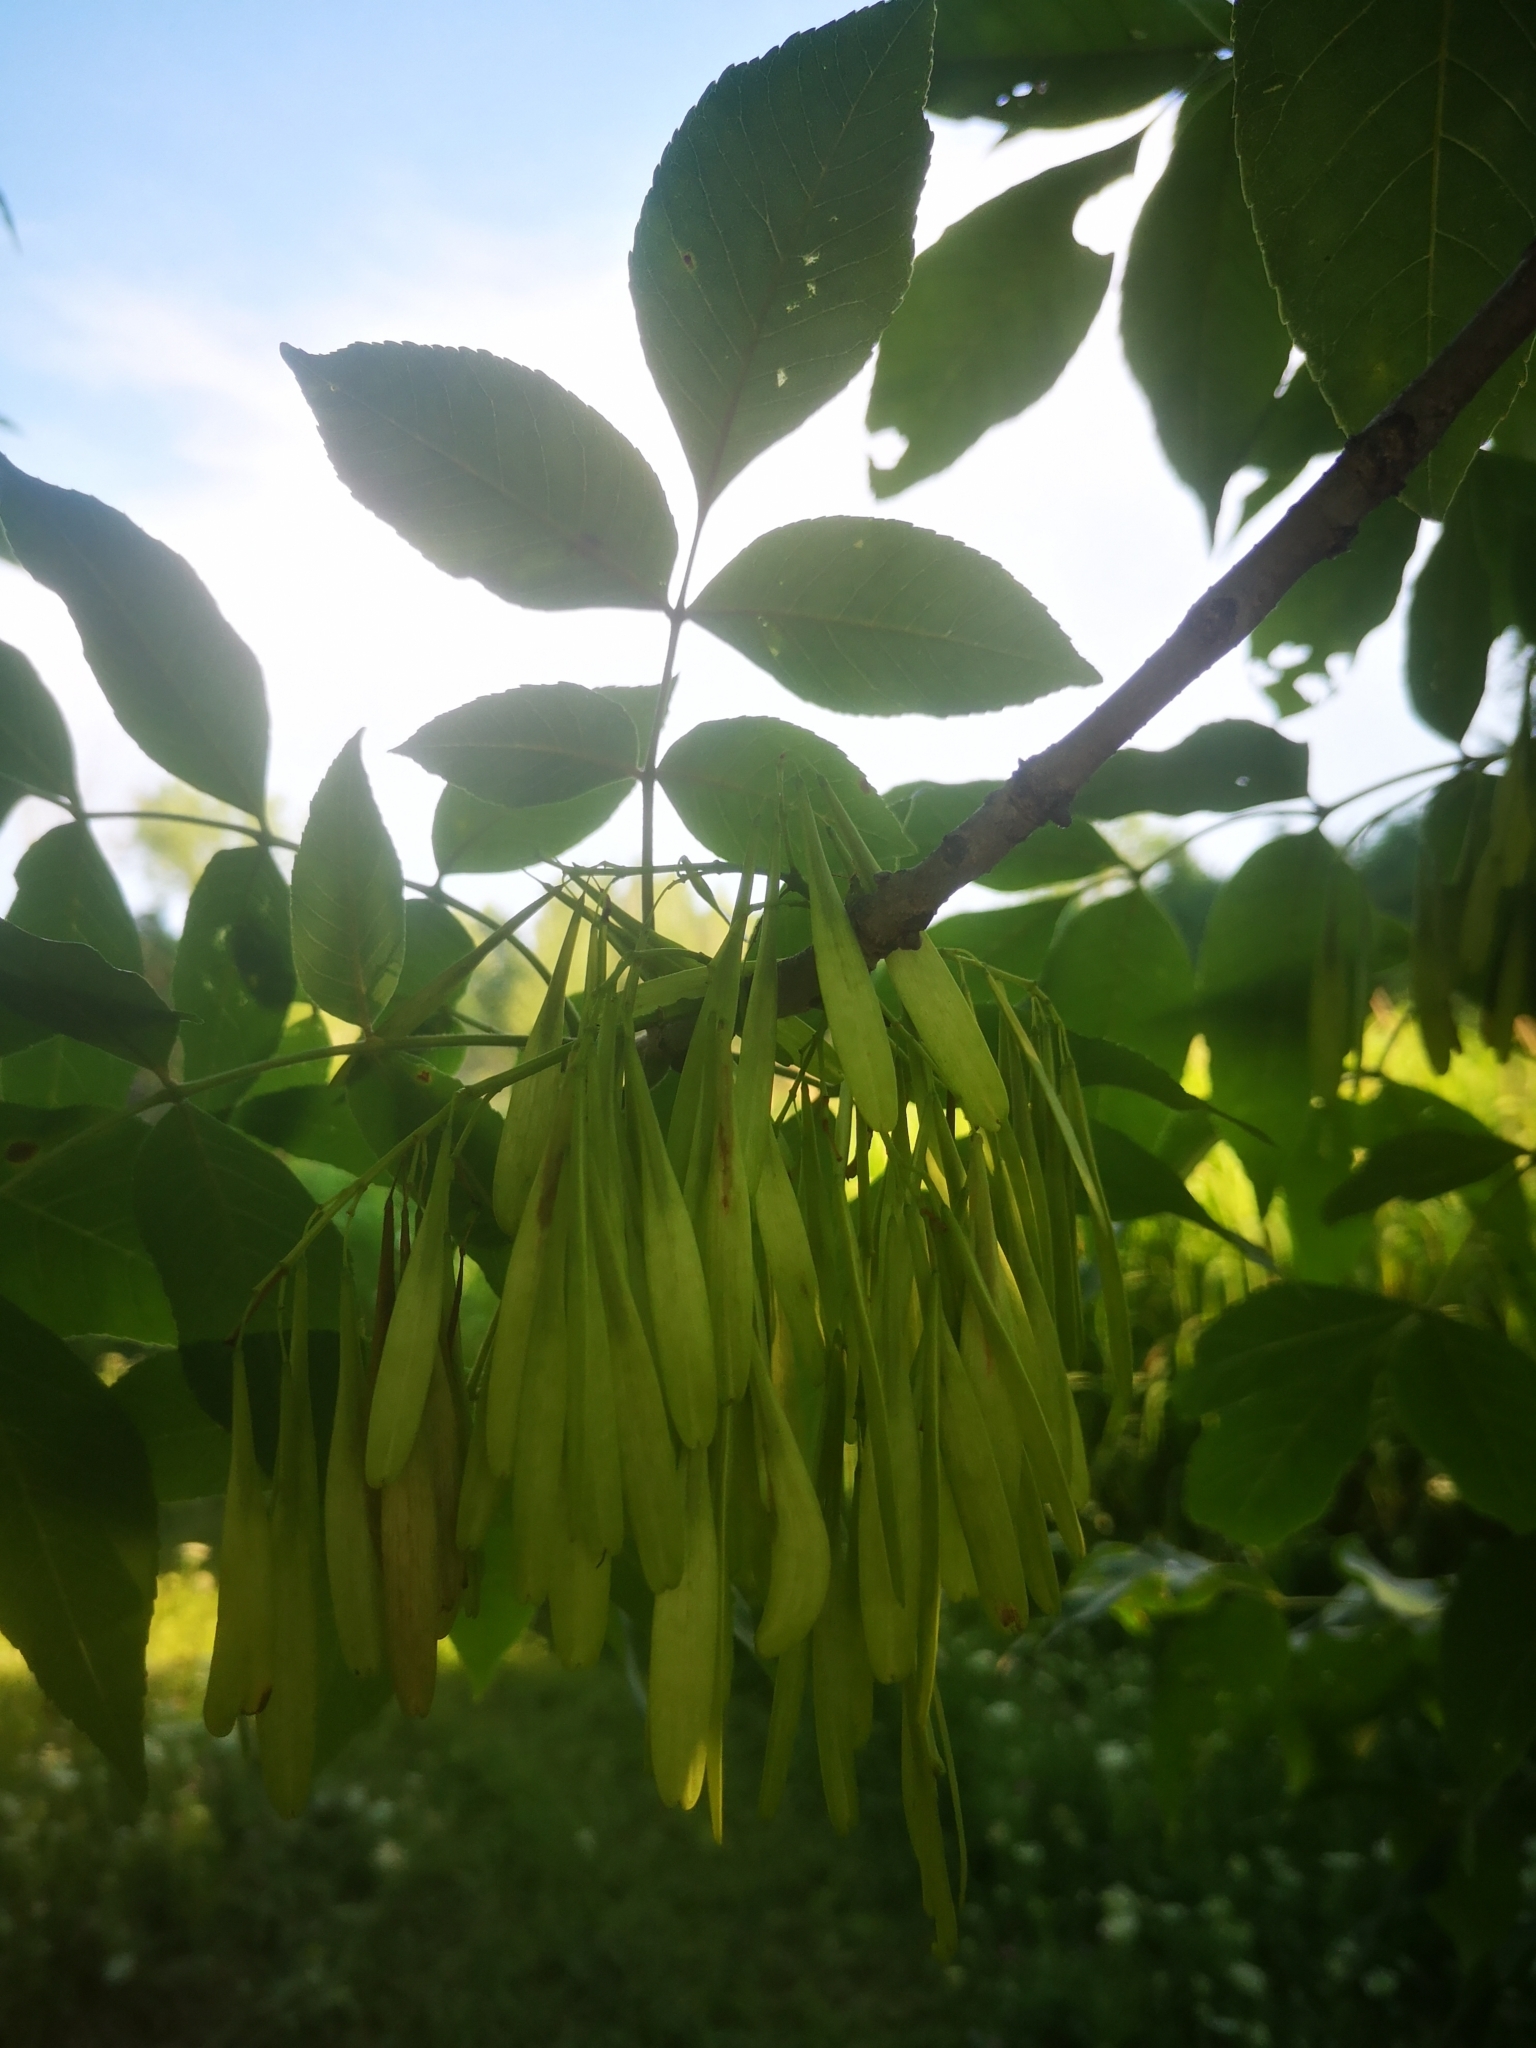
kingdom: Plantae
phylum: Tracheophyta
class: Magnoliopsida
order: Lamiales
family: Oleaceae
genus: Fraxinus
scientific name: Fraxinus pennsylvanica
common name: Green ash
